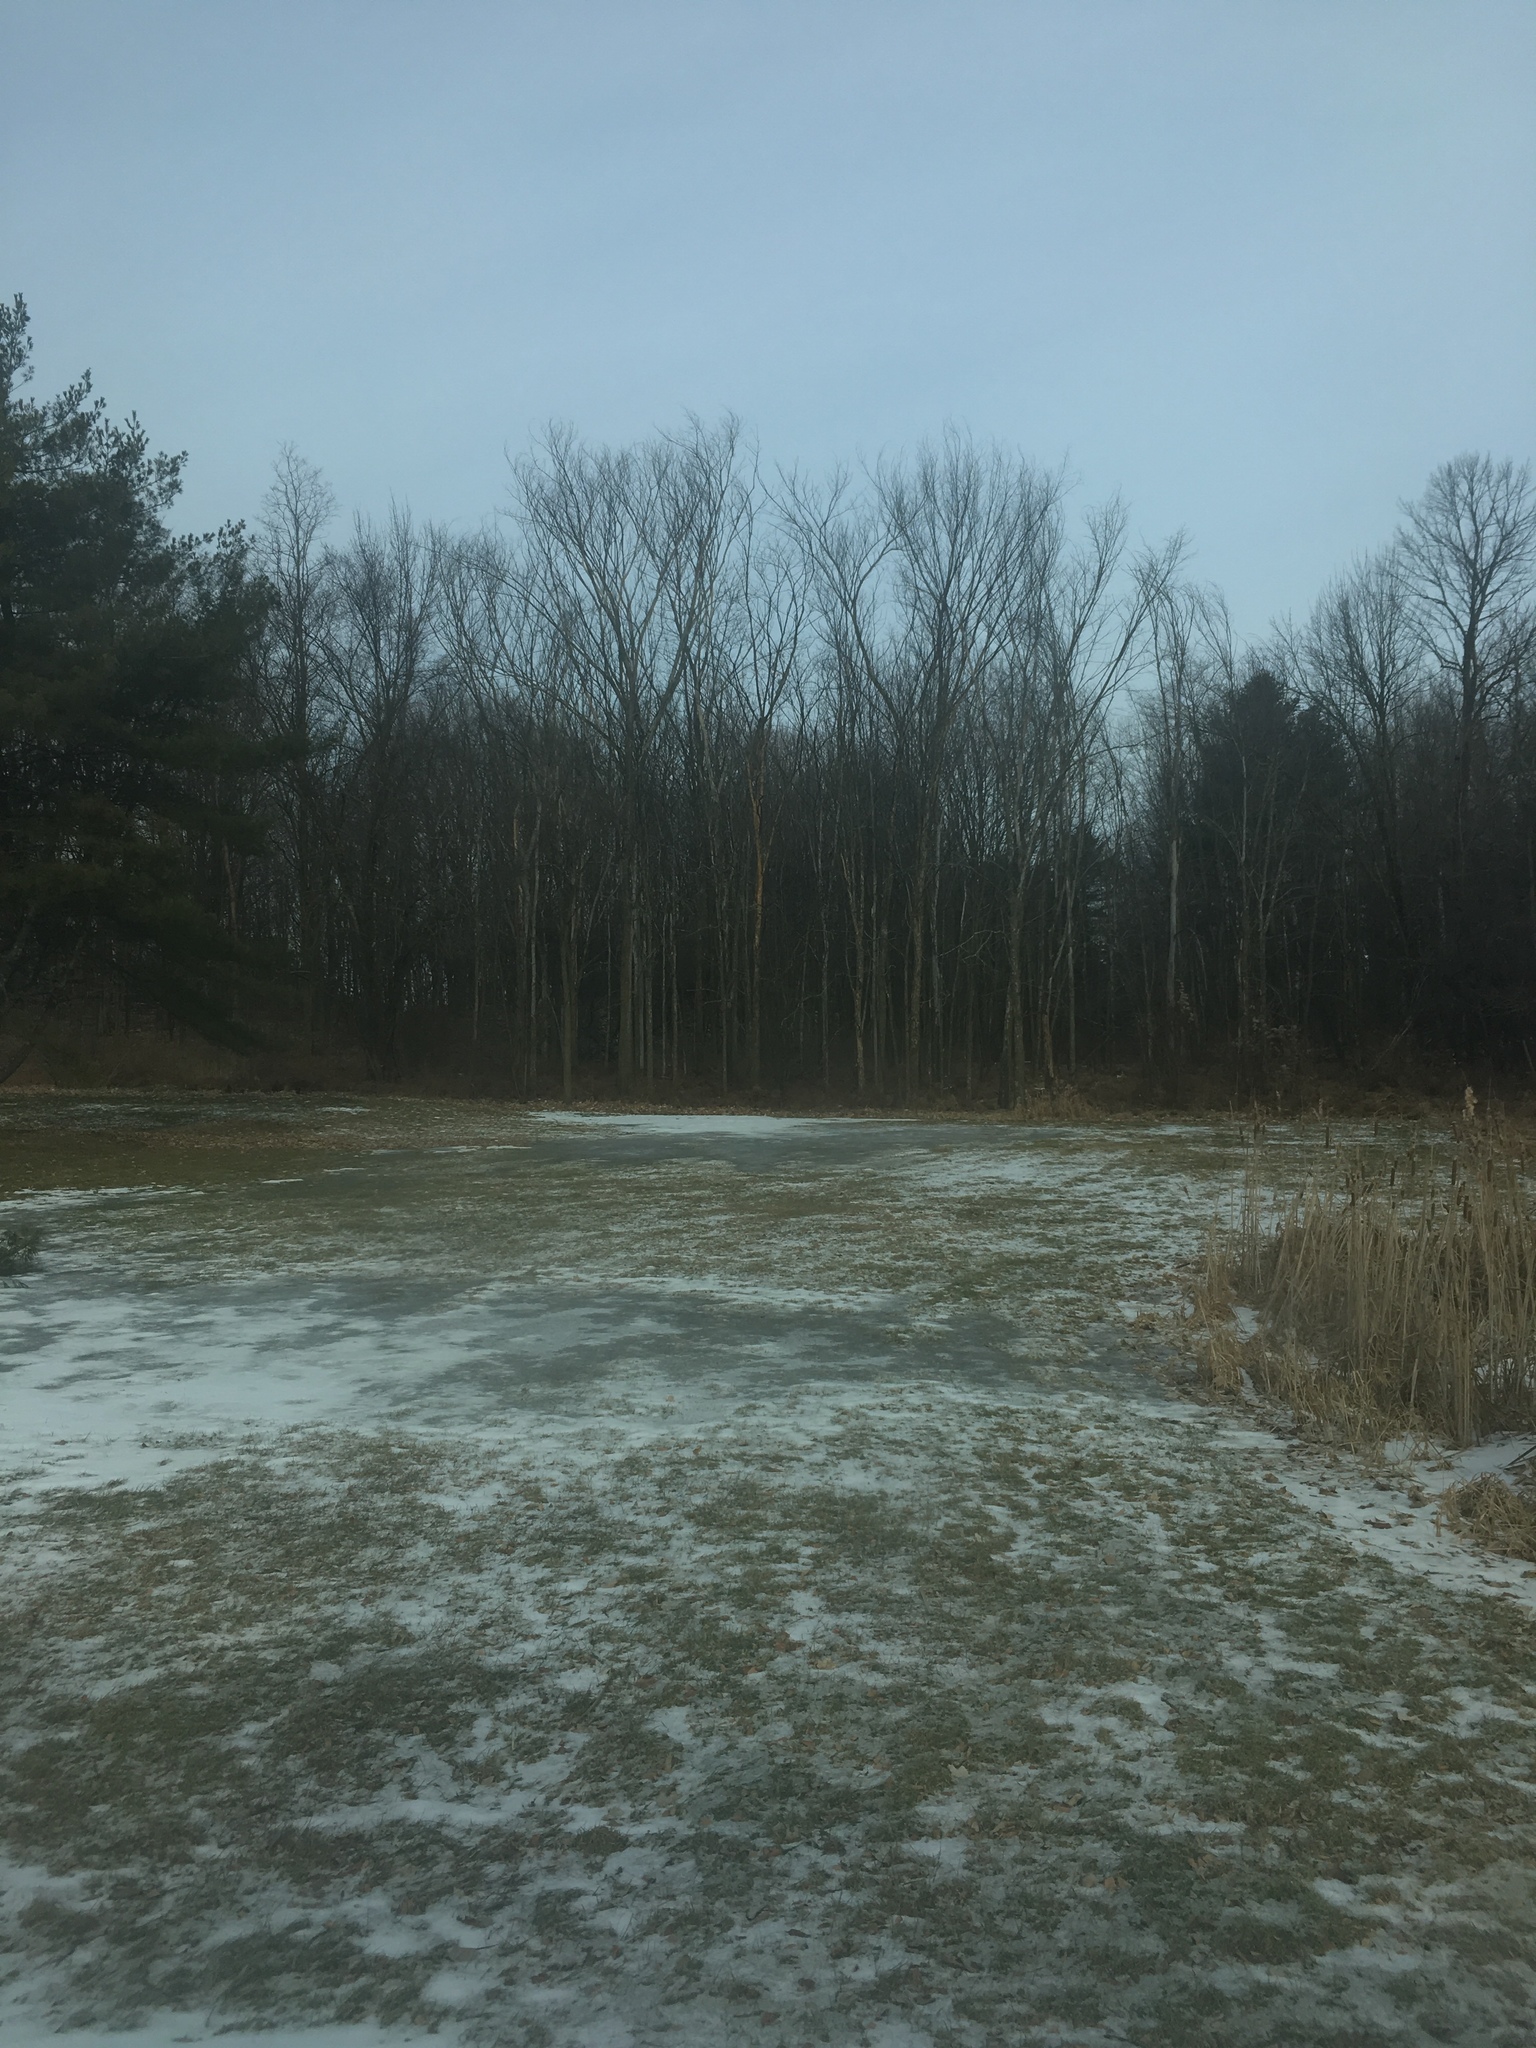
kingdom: Plantae
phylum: Tracheophyta
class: Magnoliopsida
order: Rosales
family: Ulmaceae
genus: Ulmus
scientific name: Ulmus americana
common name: American elm
